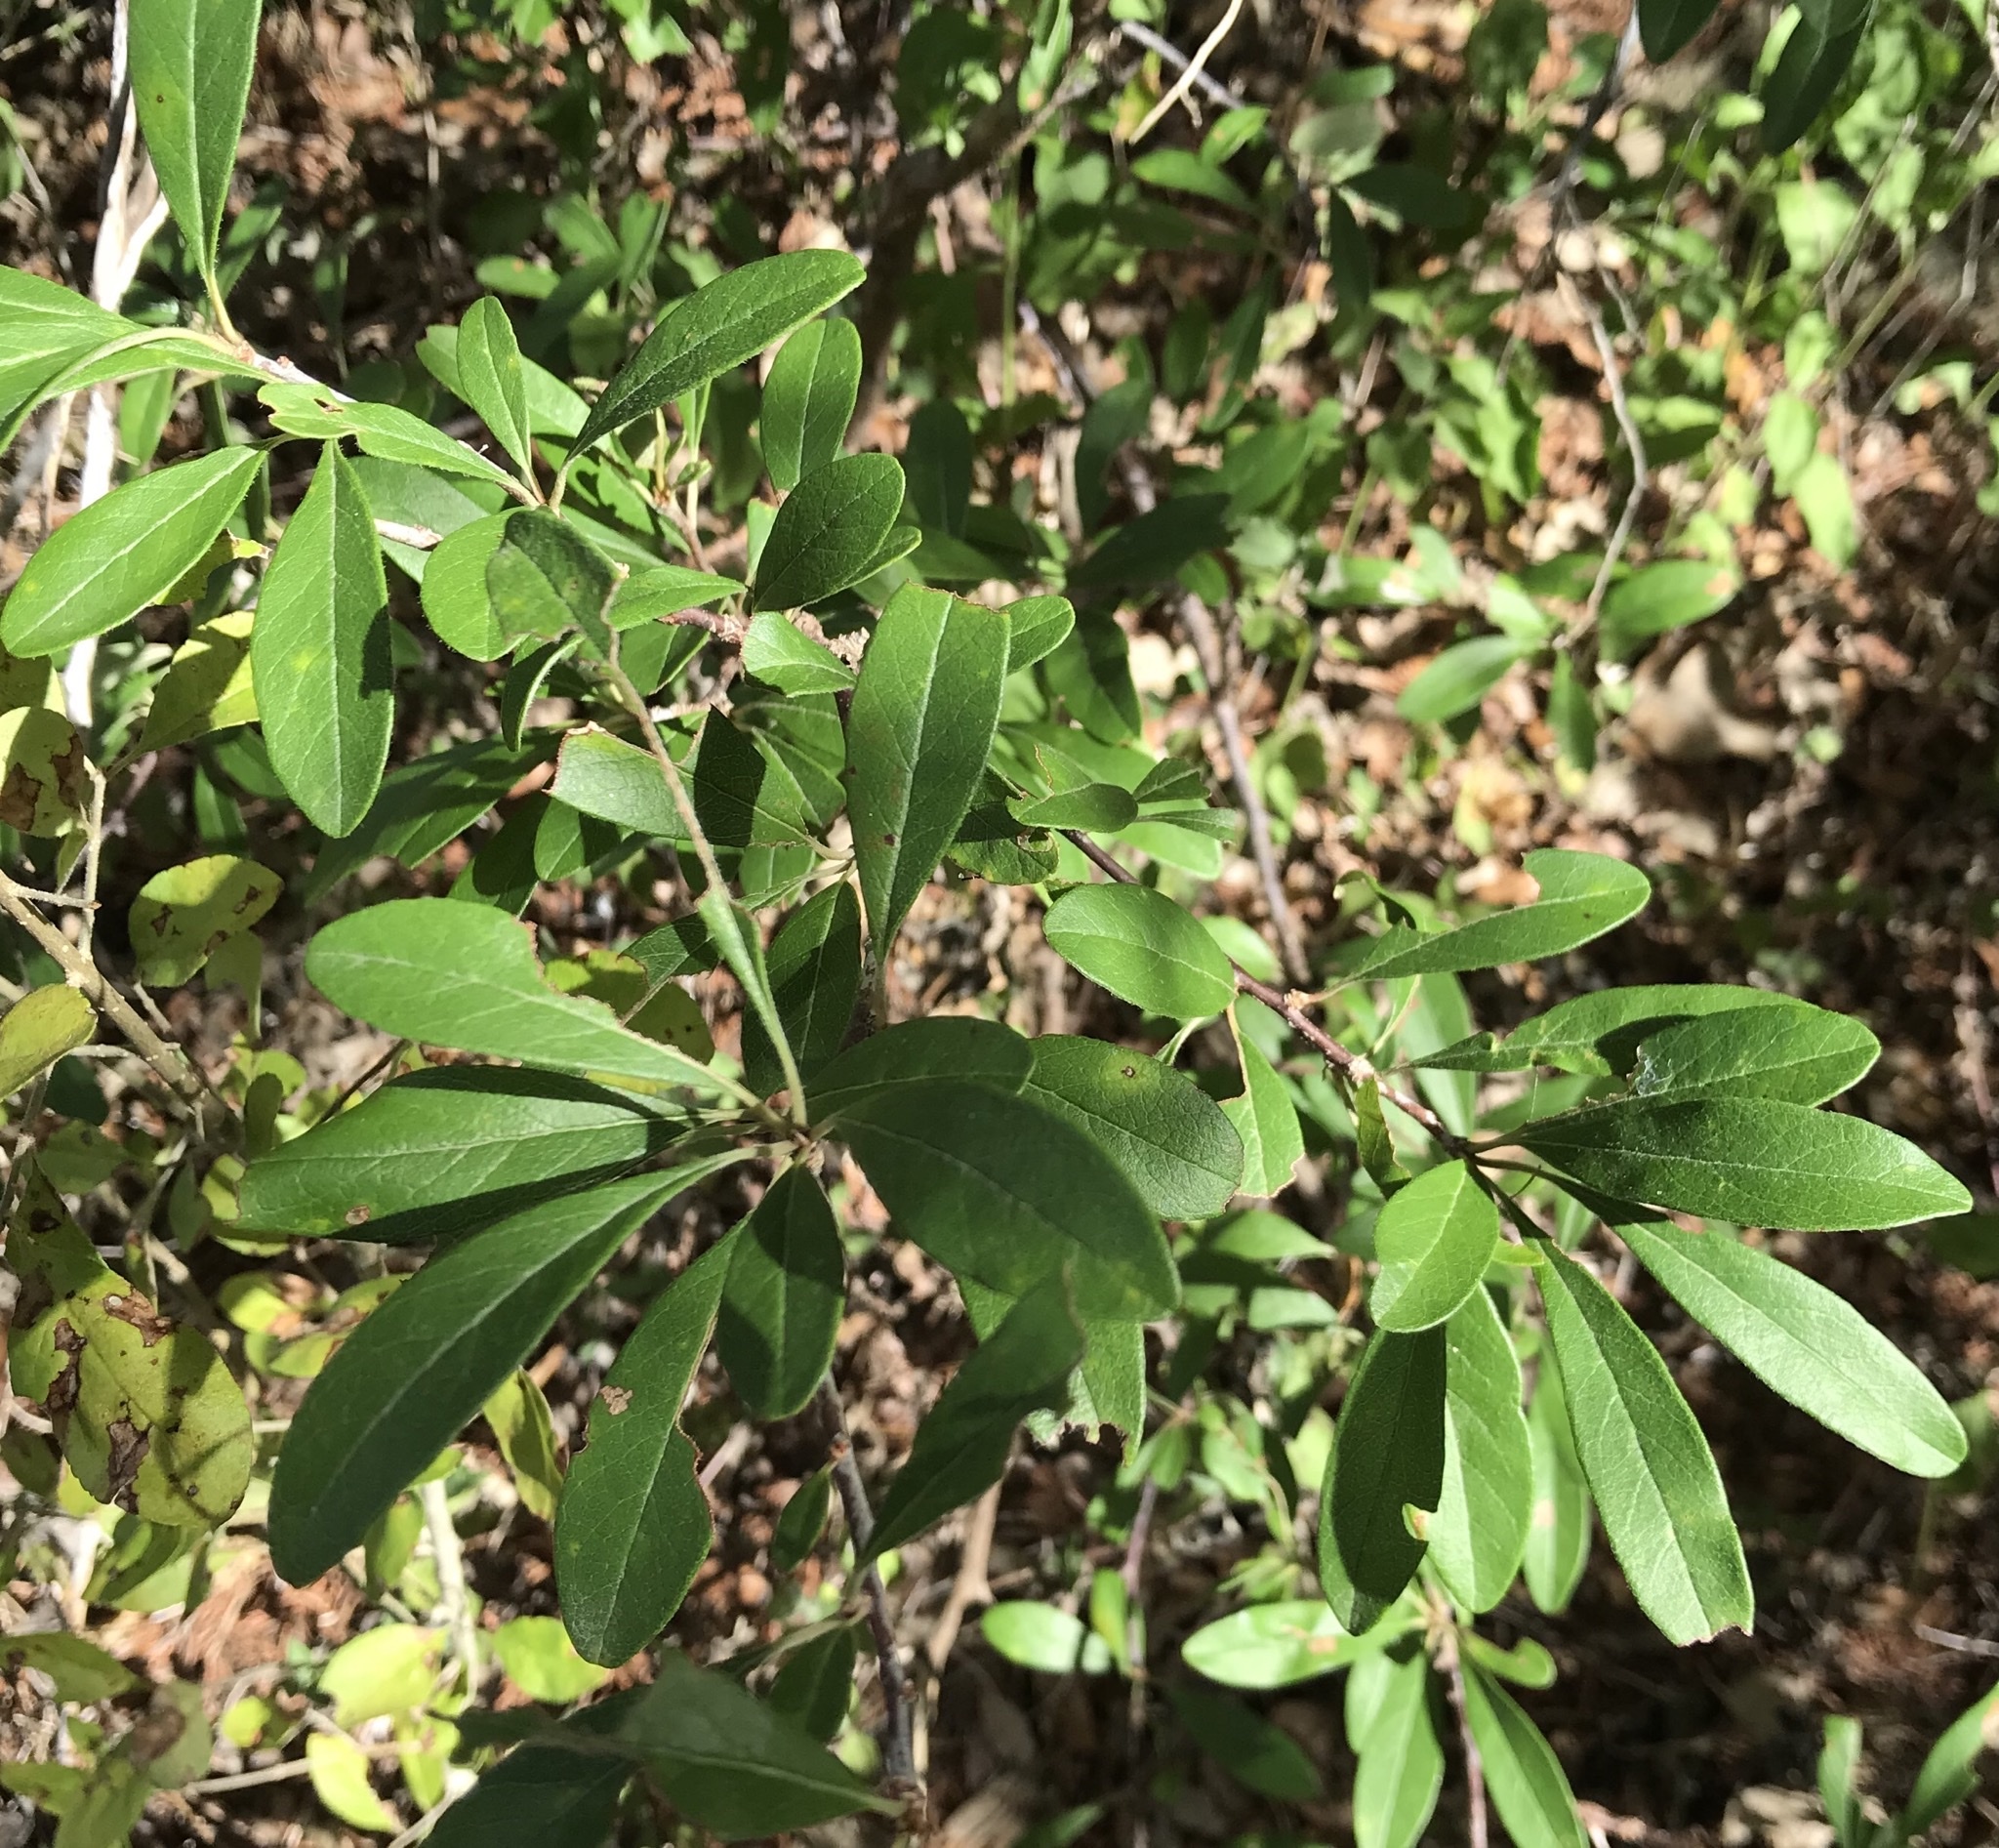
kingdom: Plantae
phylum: Tracheophyta
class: Magnoliopsida
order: Ericales
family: Sapotaceae
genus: Sideroxylon
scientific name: Sideroxylon lanuginosum
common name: Chittamwood
